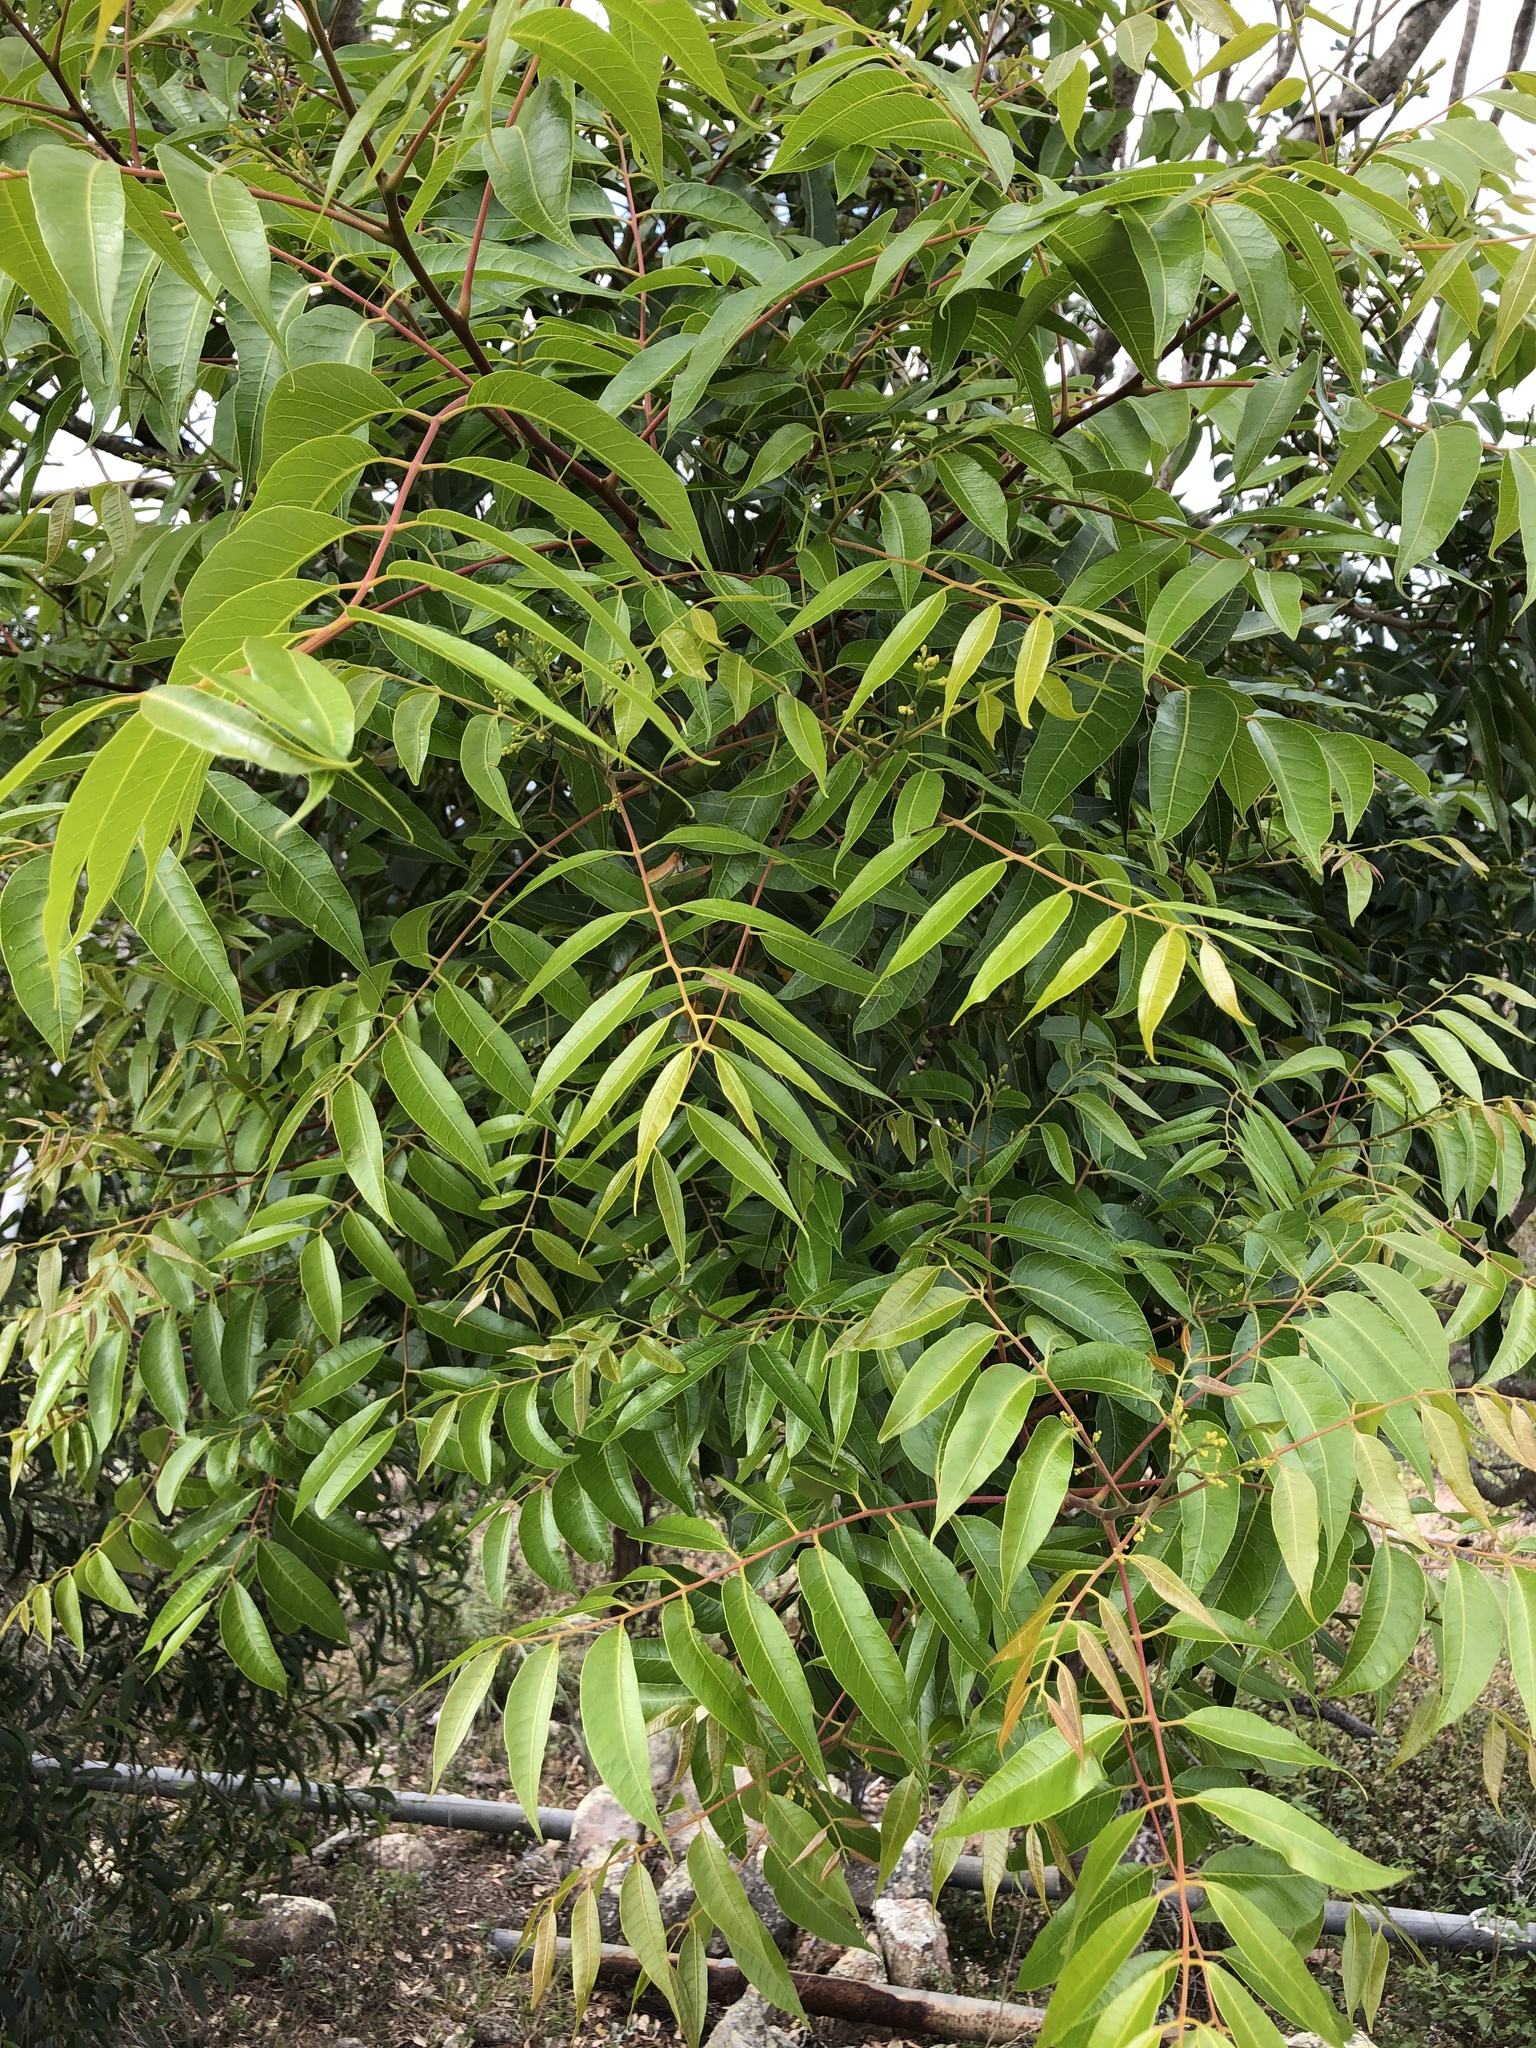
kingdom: Plantae
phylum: Tracheophyta
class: Magnoliopsida
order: Sapindales
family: Anacardiaceae
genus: Euroschinus
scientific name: Euroschinus falcatus
